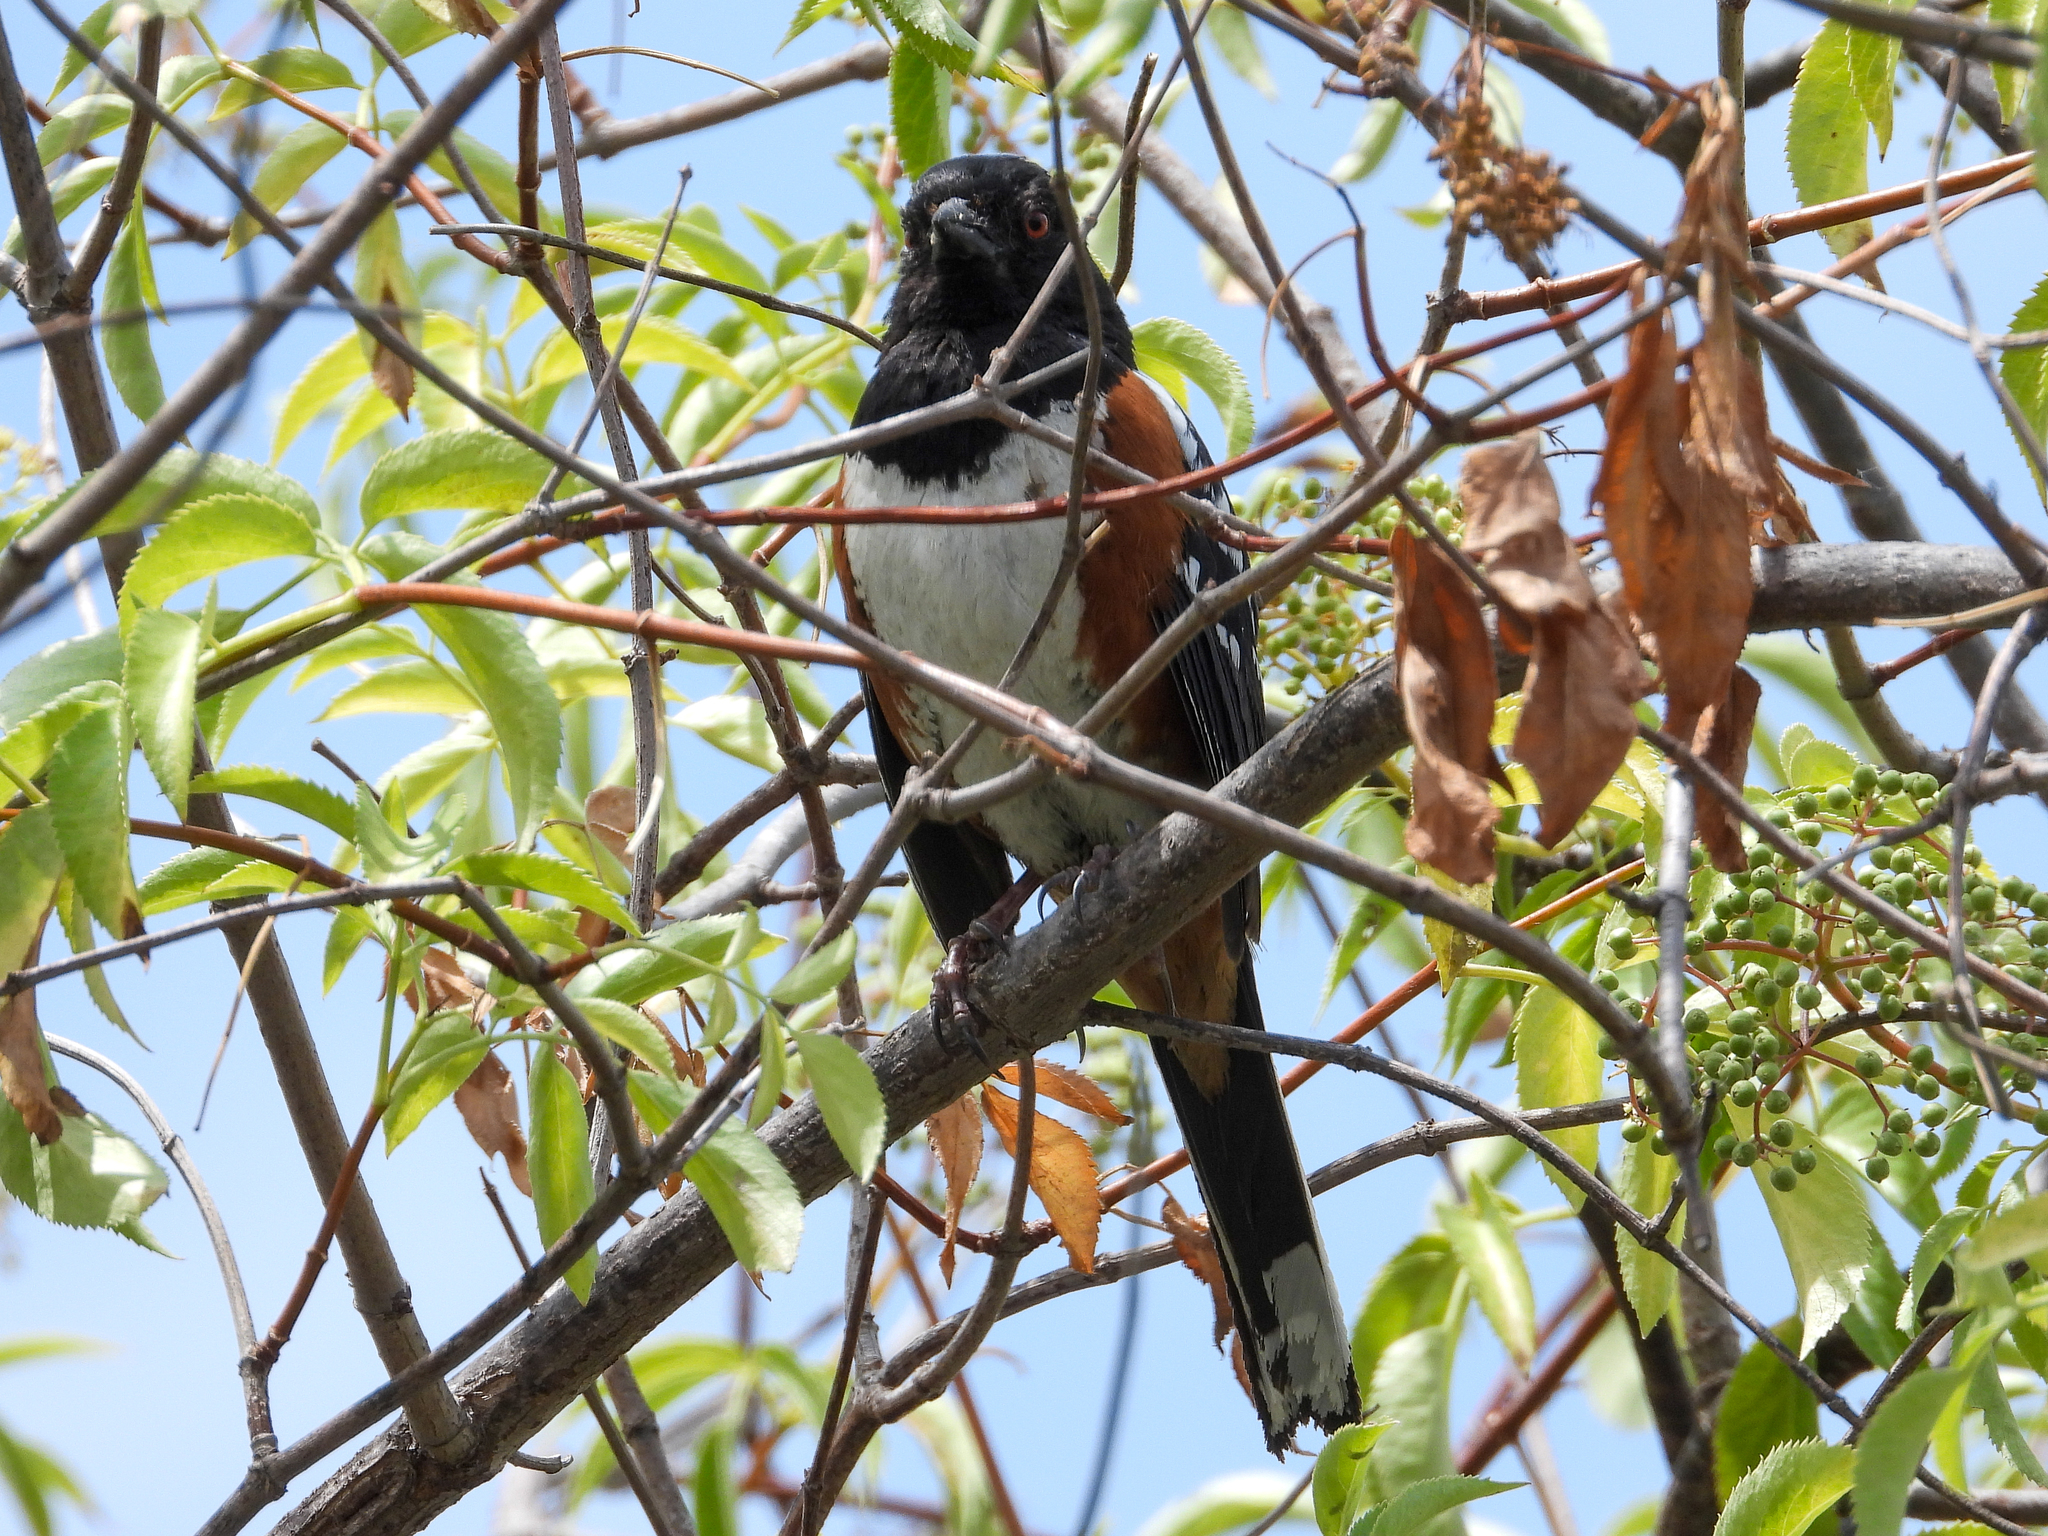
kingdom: Animalia
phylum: Chordata
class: Aves
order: Passeriformes
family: Passerellidae
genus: Pipilo
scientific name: Pipilo maculatus
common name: Spotted towhee
